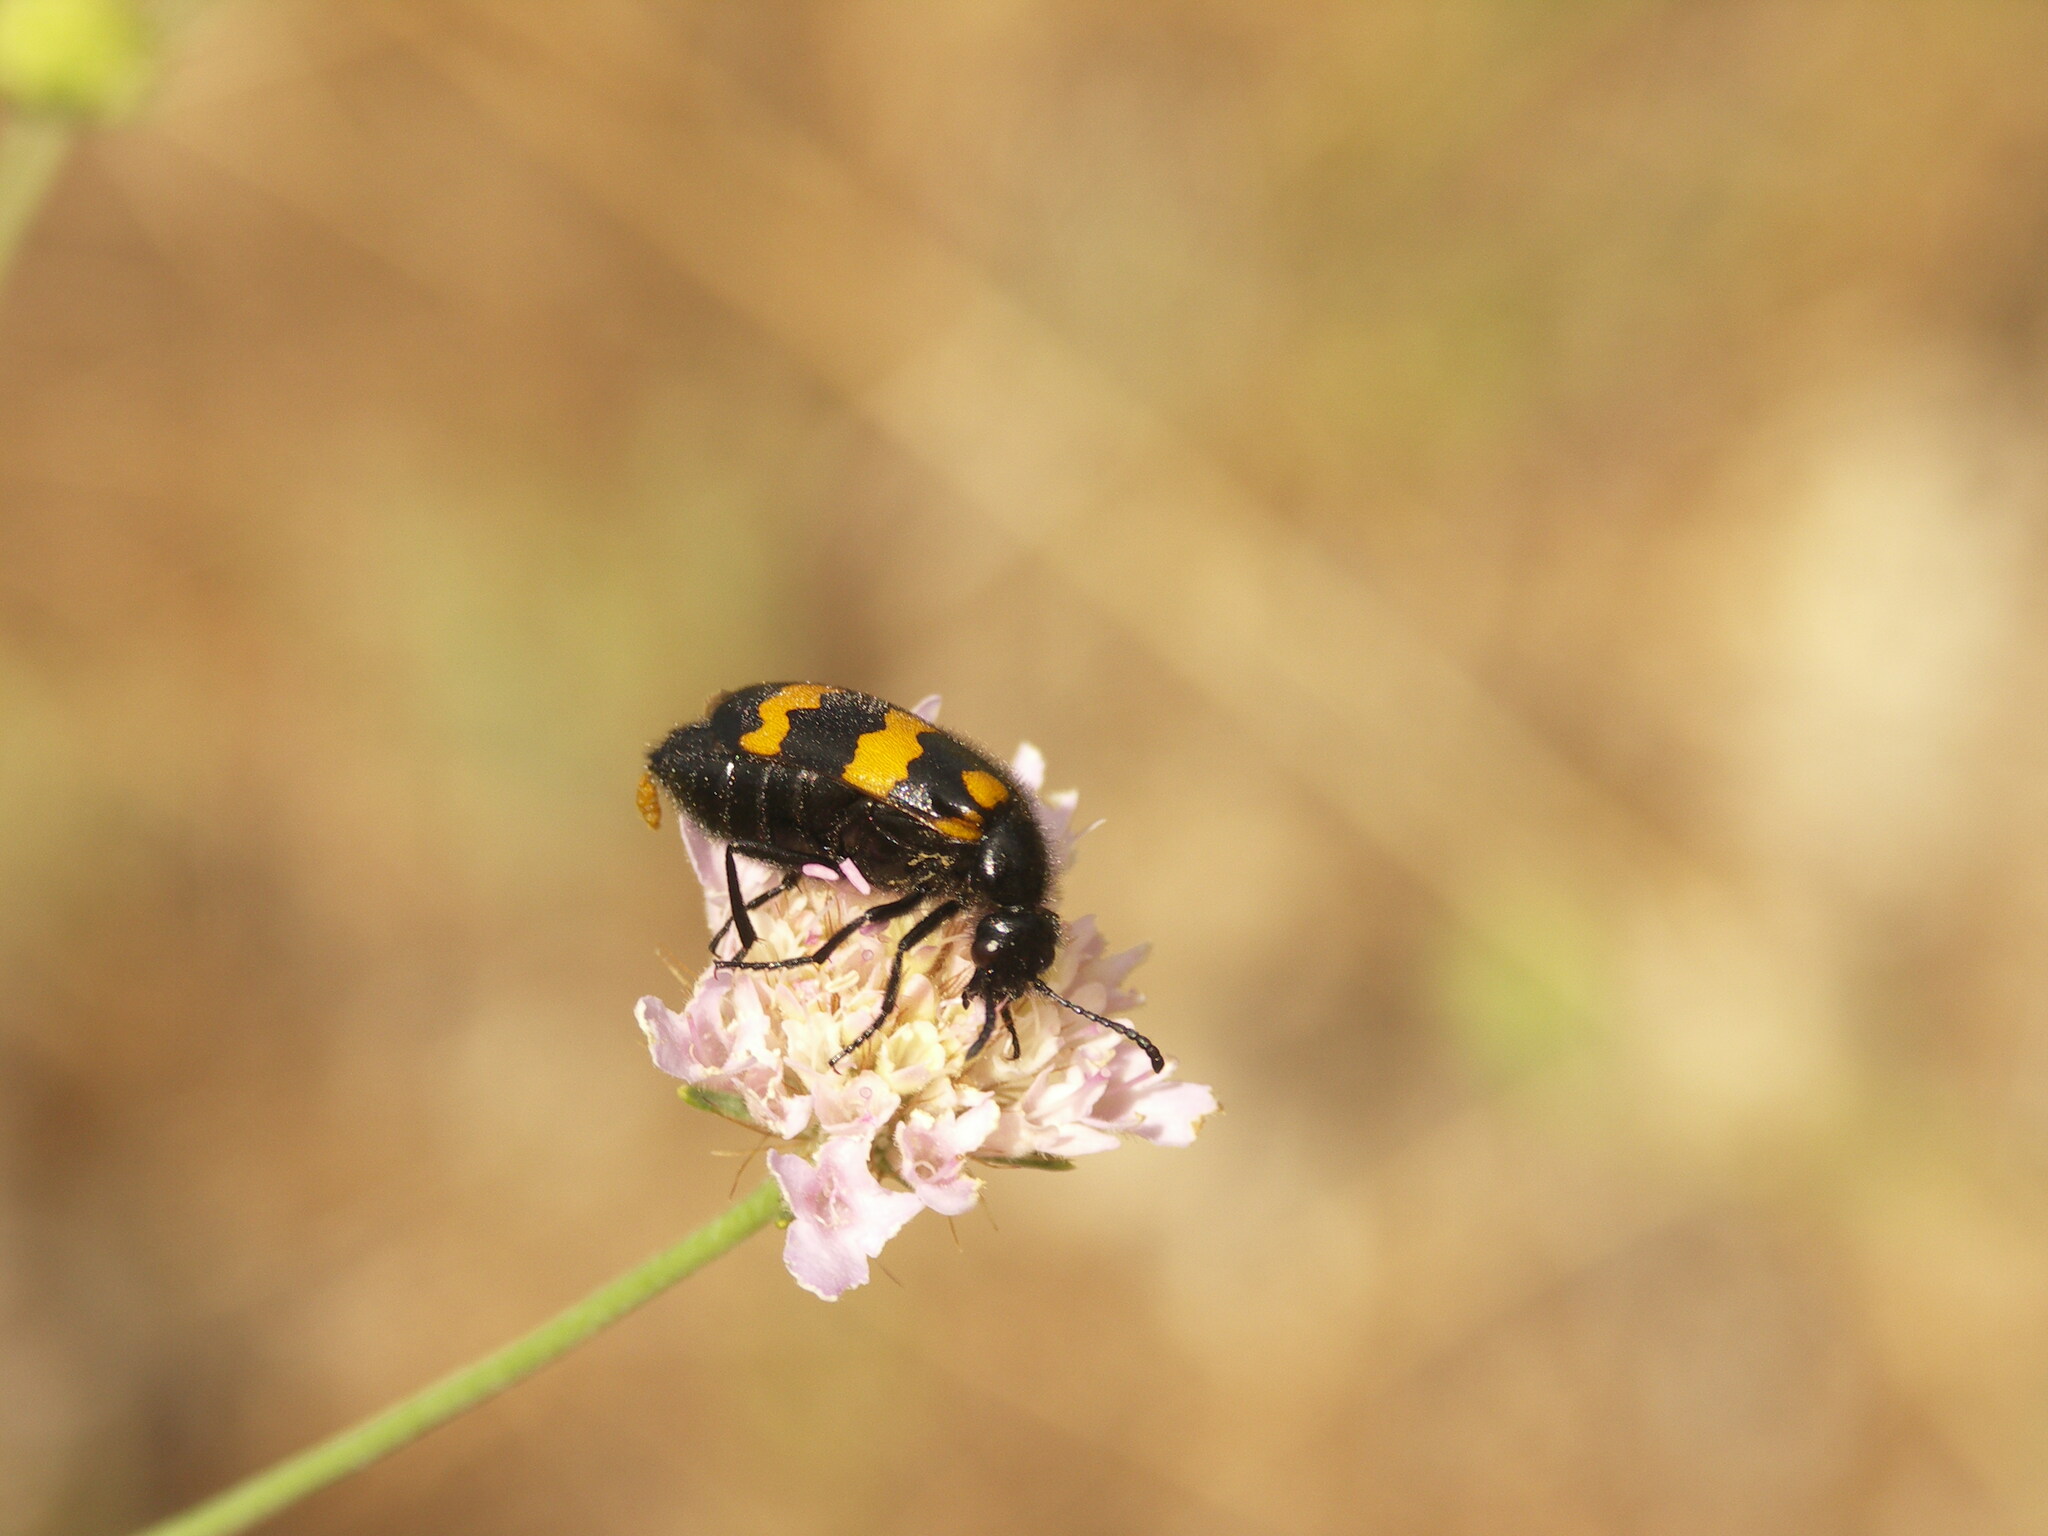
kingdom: Animalia
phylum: Arthropoda
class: Insecta
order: Coleoptera
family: Meloidae
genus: Mylabris
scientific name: Mylabris variabilis
